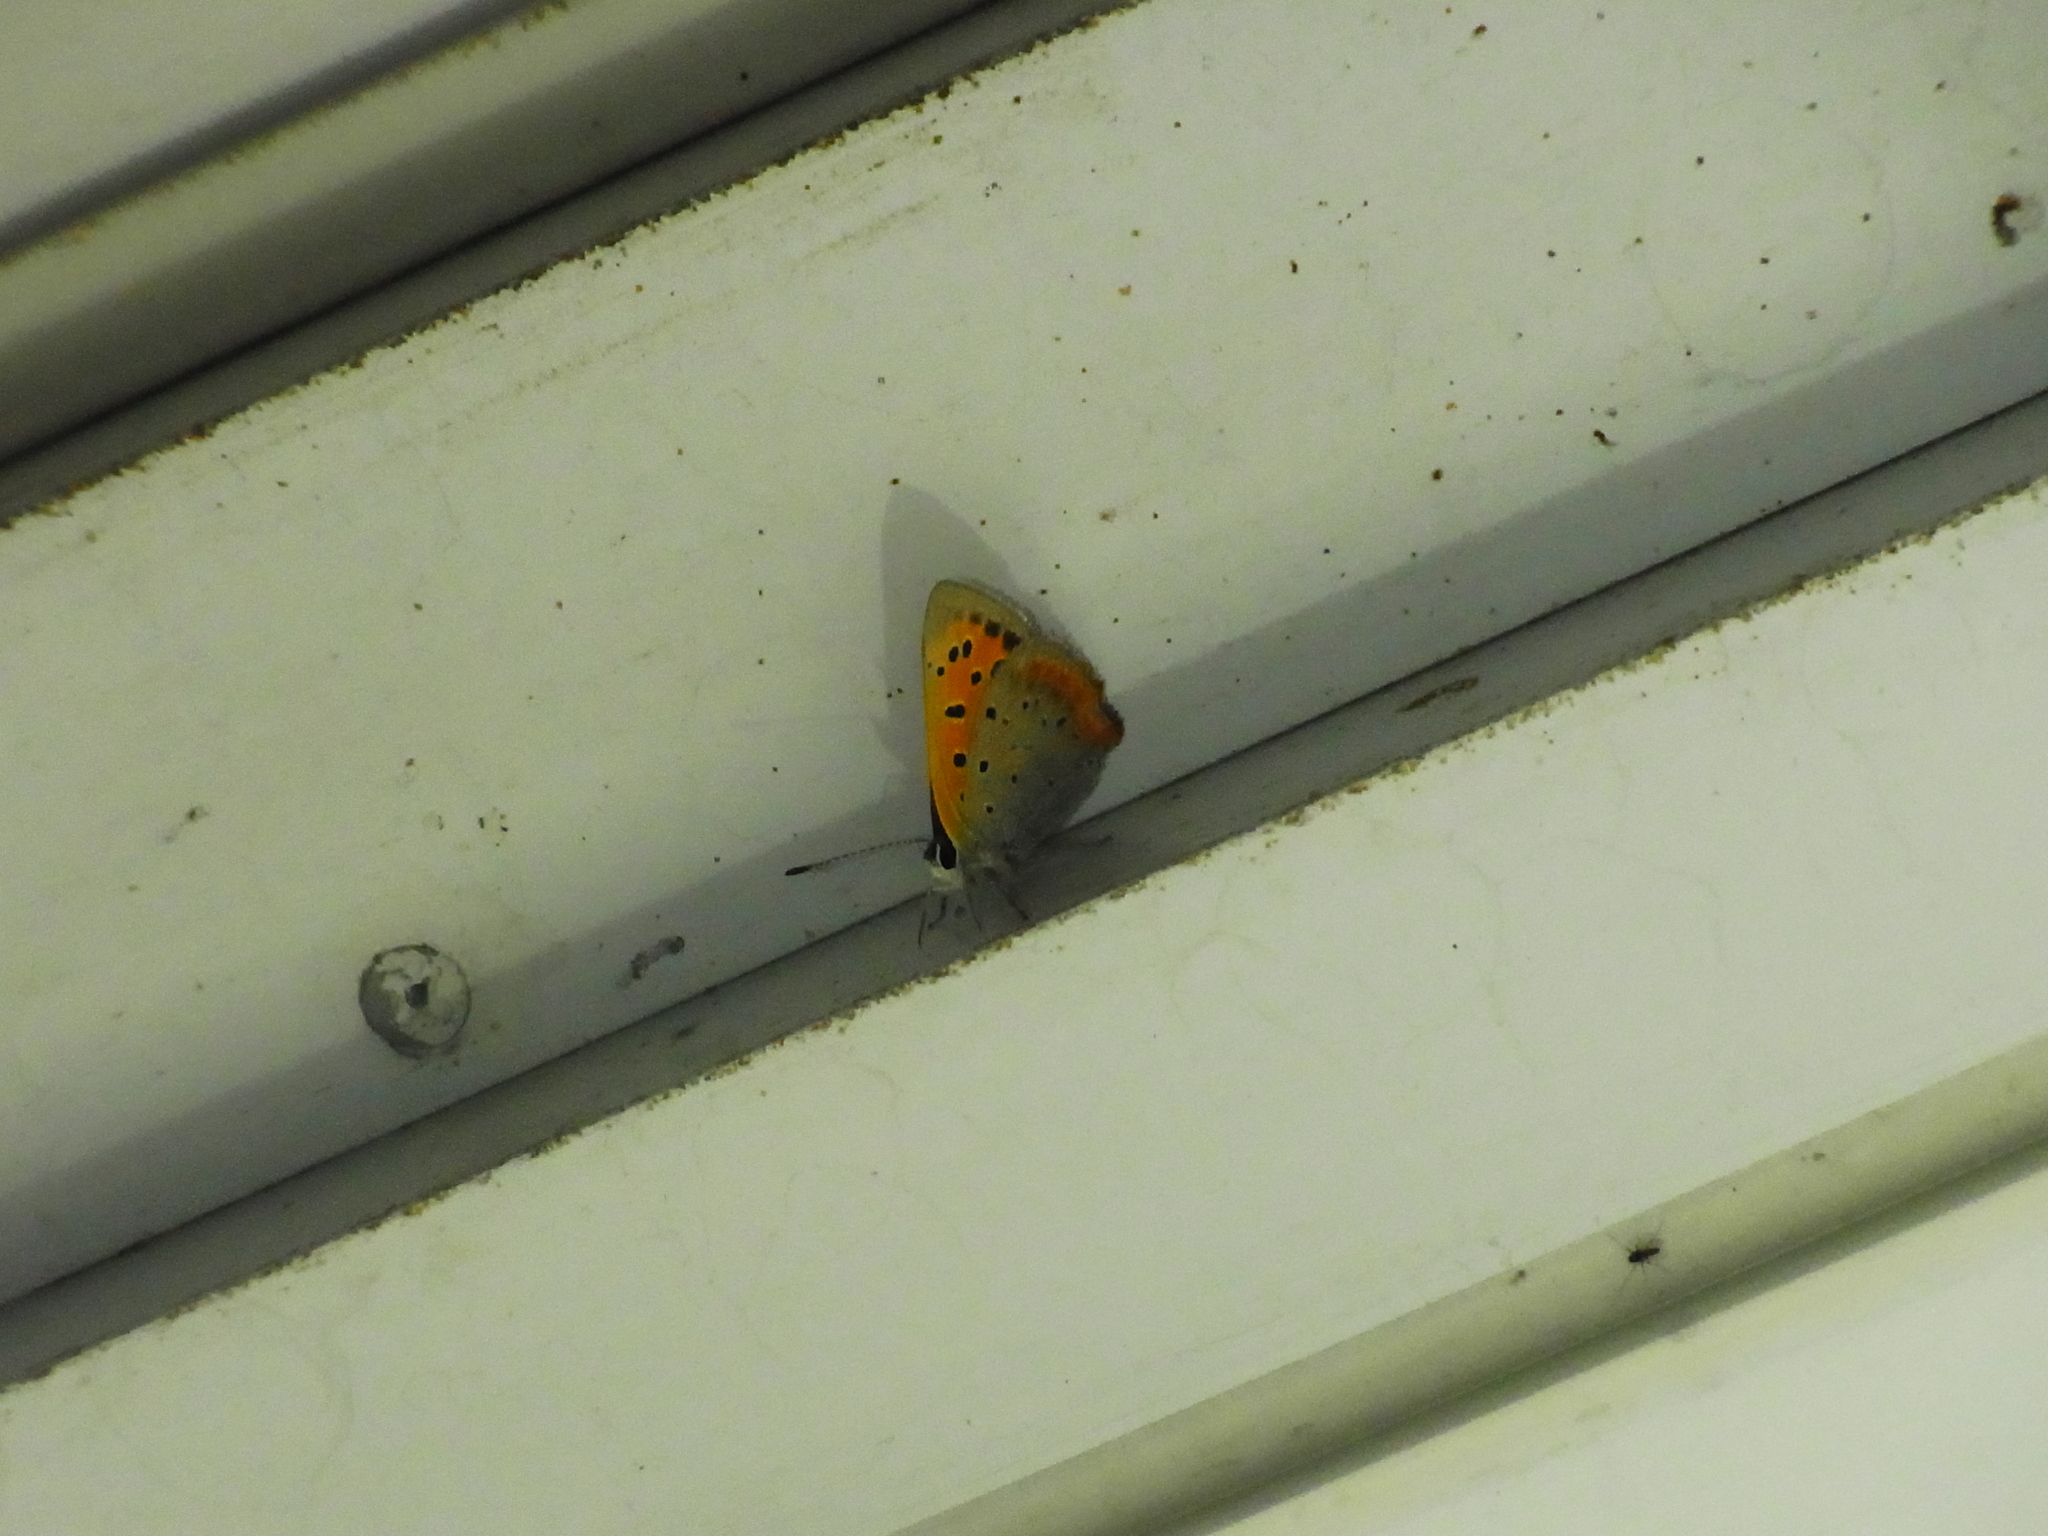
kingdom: Animalia
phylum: Arthropoda
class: Insecta
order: Lepidoptera
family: Lycaenidae
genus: Lycaena
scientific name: Lycaena phlaeas
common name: Small copper
